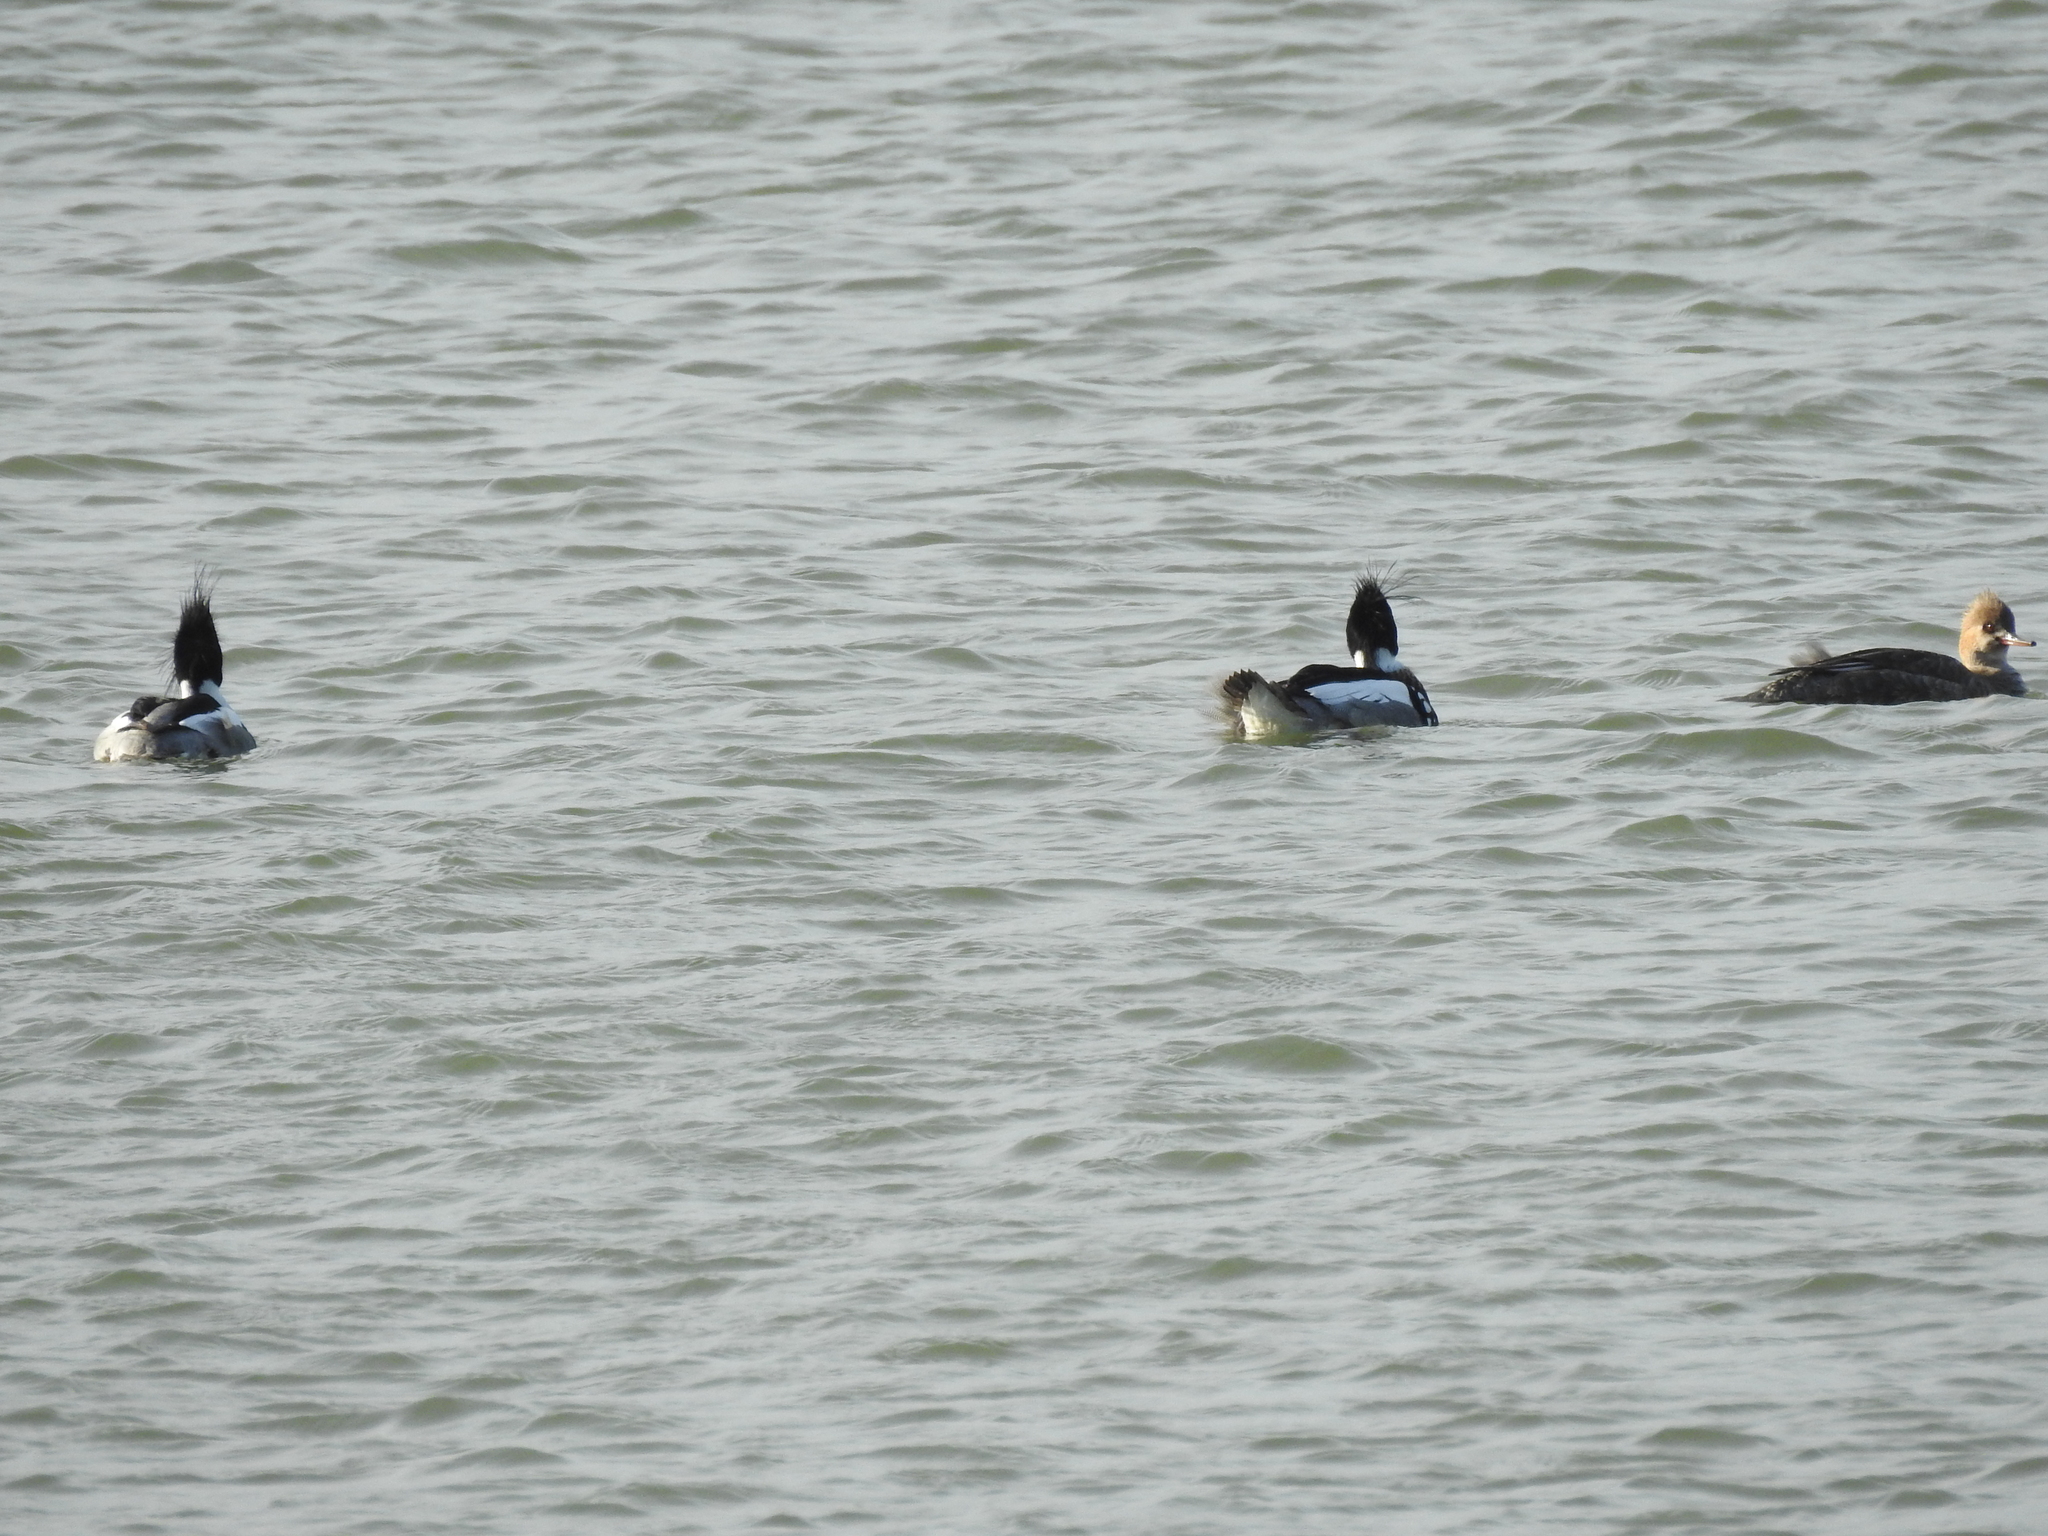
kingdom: Animalia
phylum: Chordata
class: Aves
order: Anseriformes
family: Anatidae
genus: Mergus
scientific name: Mergus serrator
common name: Red-breasted merganser
